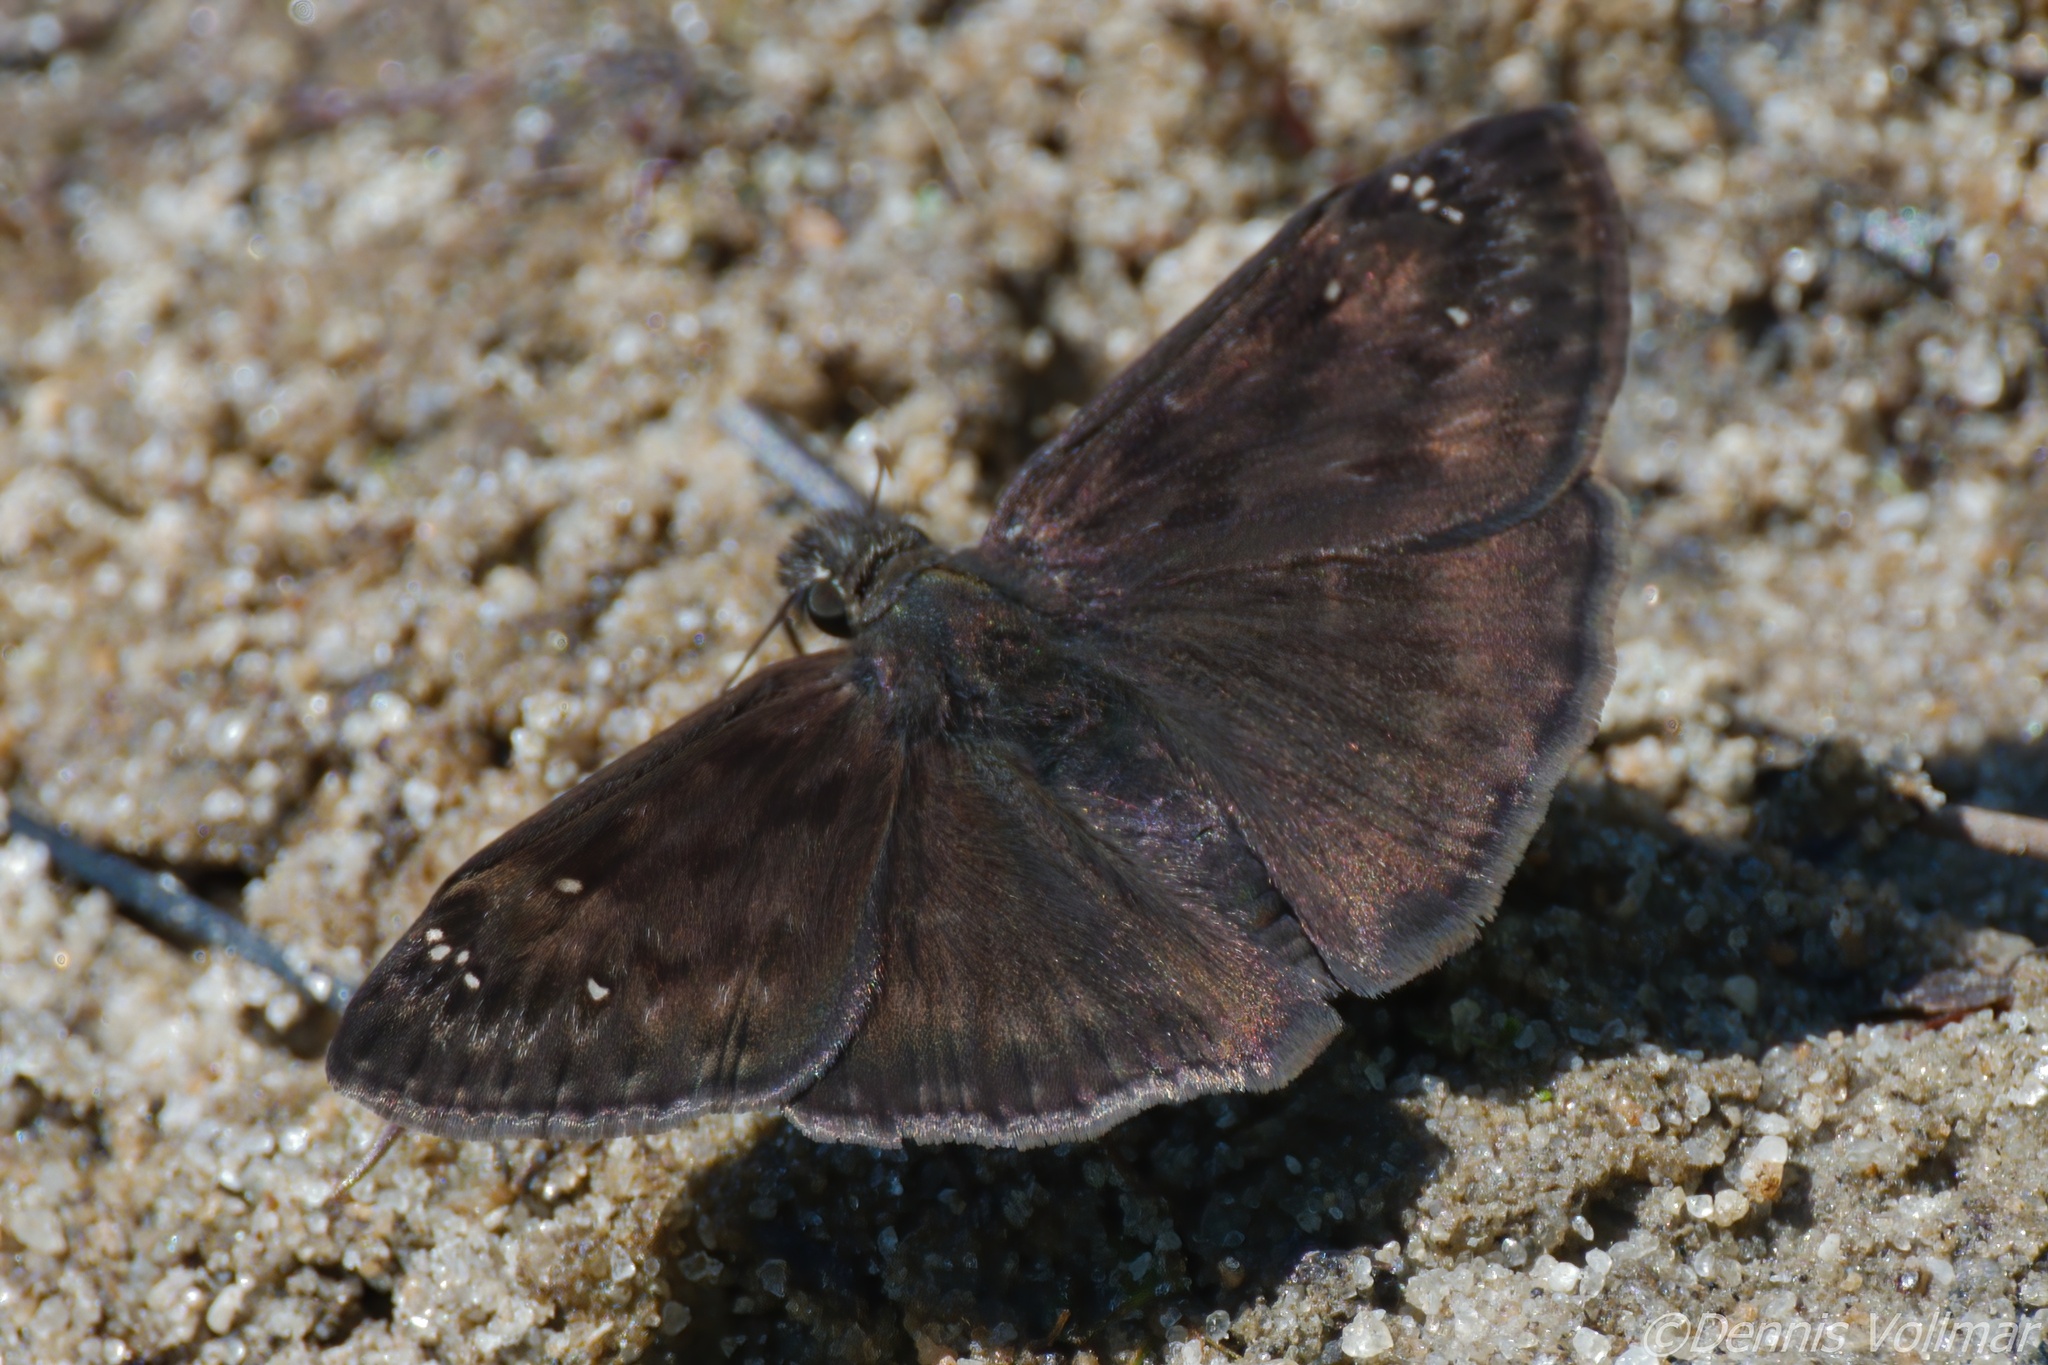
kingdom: Animalia
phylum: Arthropoda
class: Insecta
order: Lepidoptera
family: Hesperiidae
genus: Erynnis
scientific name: Erynnis horatius
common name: Horace's duskywing
